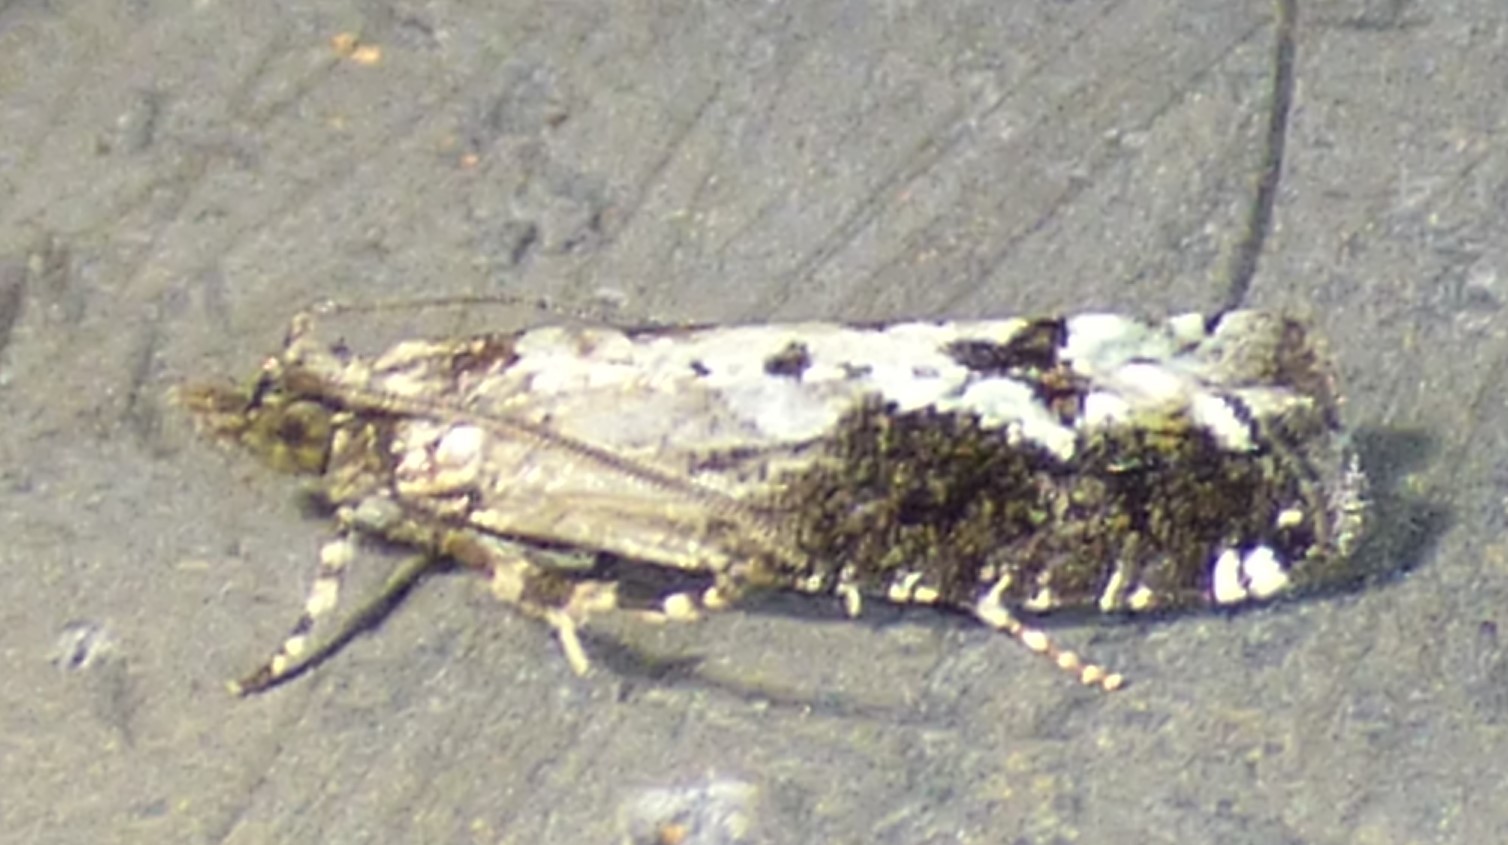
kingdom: Animalia
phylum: Arthropoda
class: Insecta
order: Lepidoptera
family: Tortricidae
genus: Chimoptesis
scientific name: Chimoptesis pennsylvaniana
